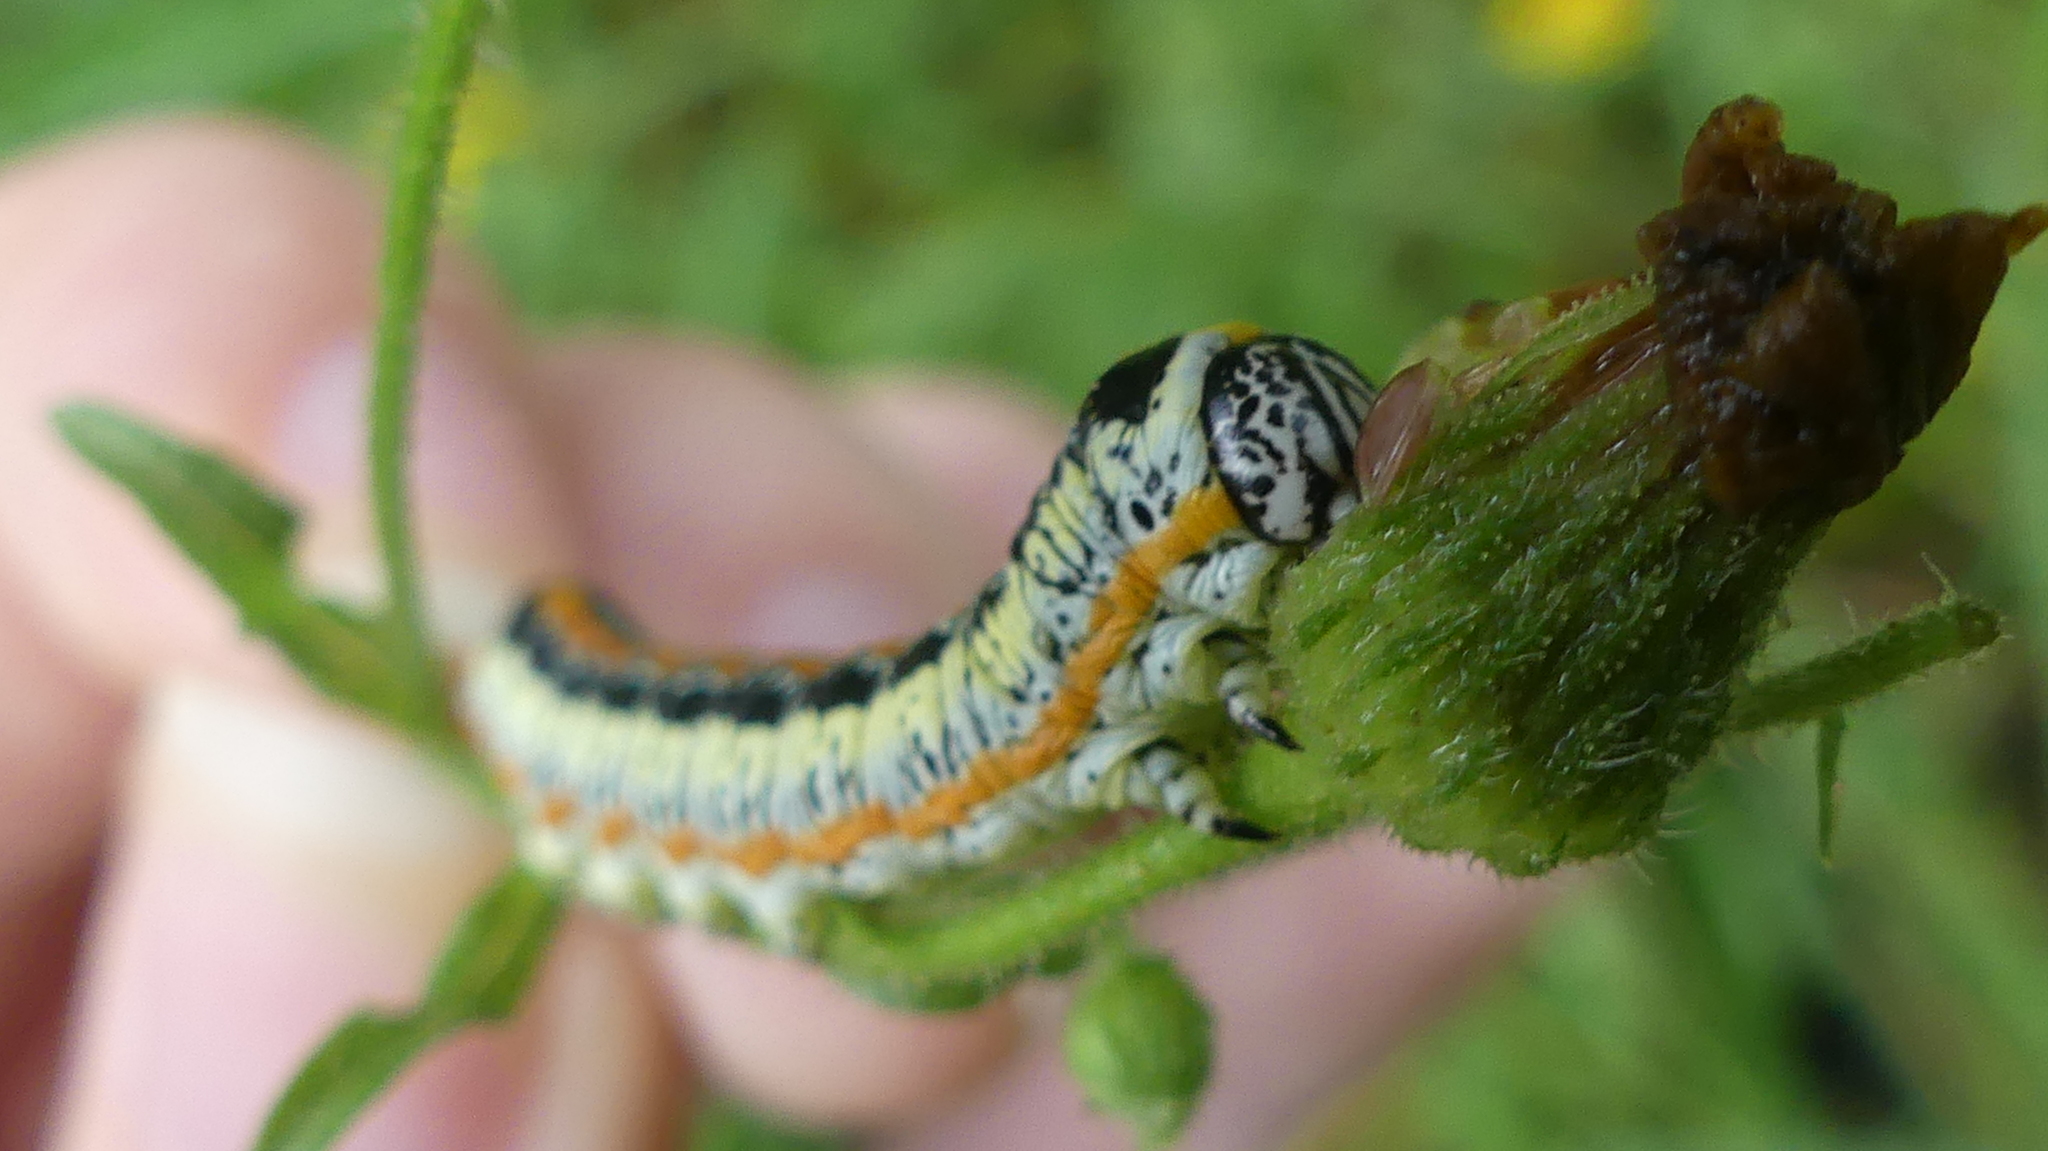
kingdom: Animalia
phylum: Arthropoda
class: Insecta
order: Lepidoptera
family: Noctuidae
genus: Cucullia
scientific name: Cucullia lethe
